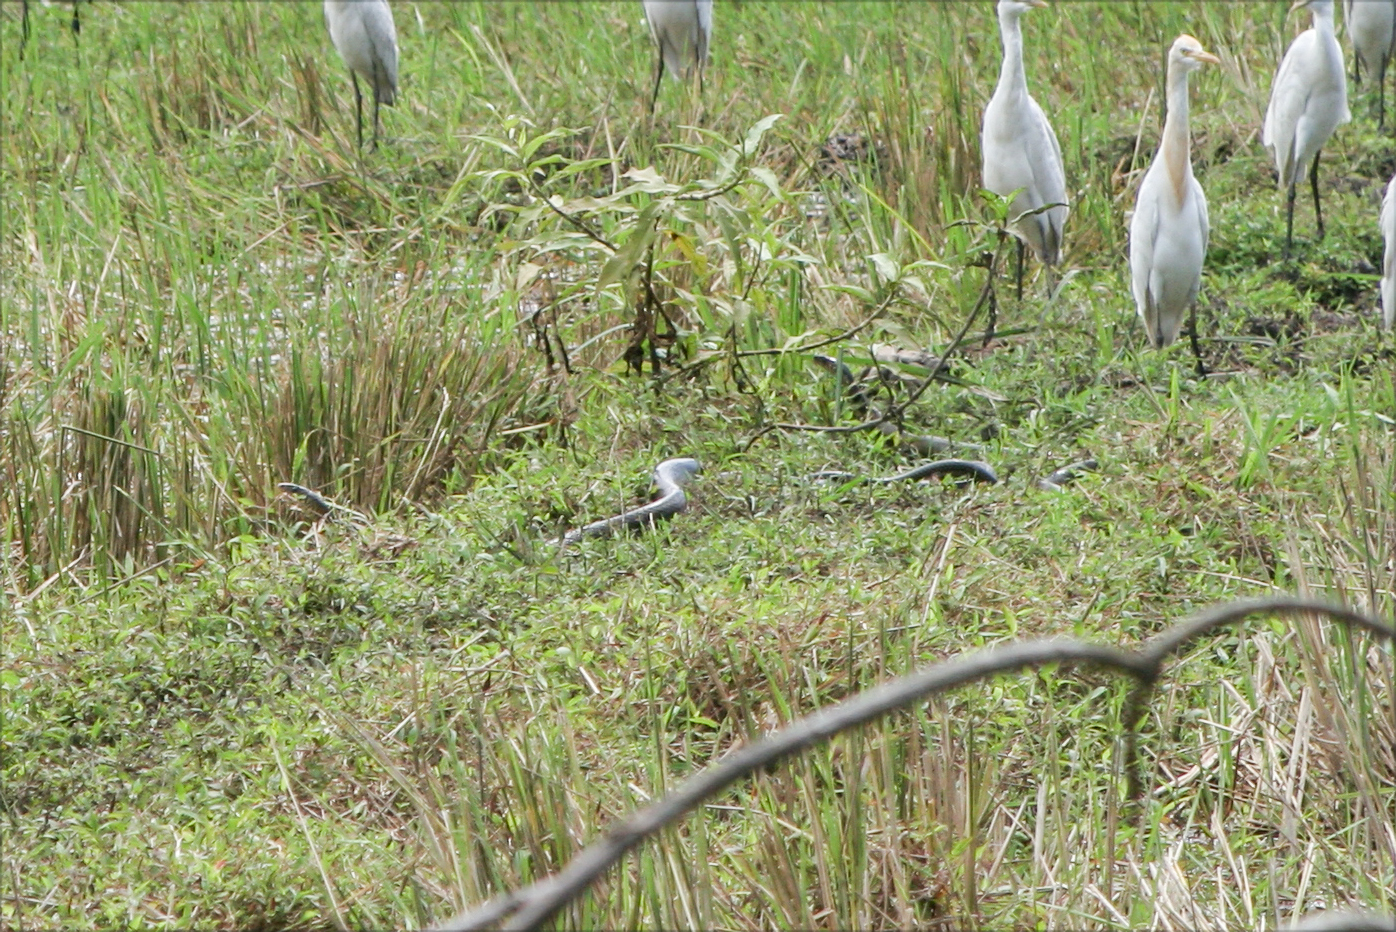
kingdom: Animalia
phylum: Chordata
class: Squamata
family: Colubridae
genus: Ptyas
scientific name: Ptyas mucosa
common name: Oriental ratsnake
